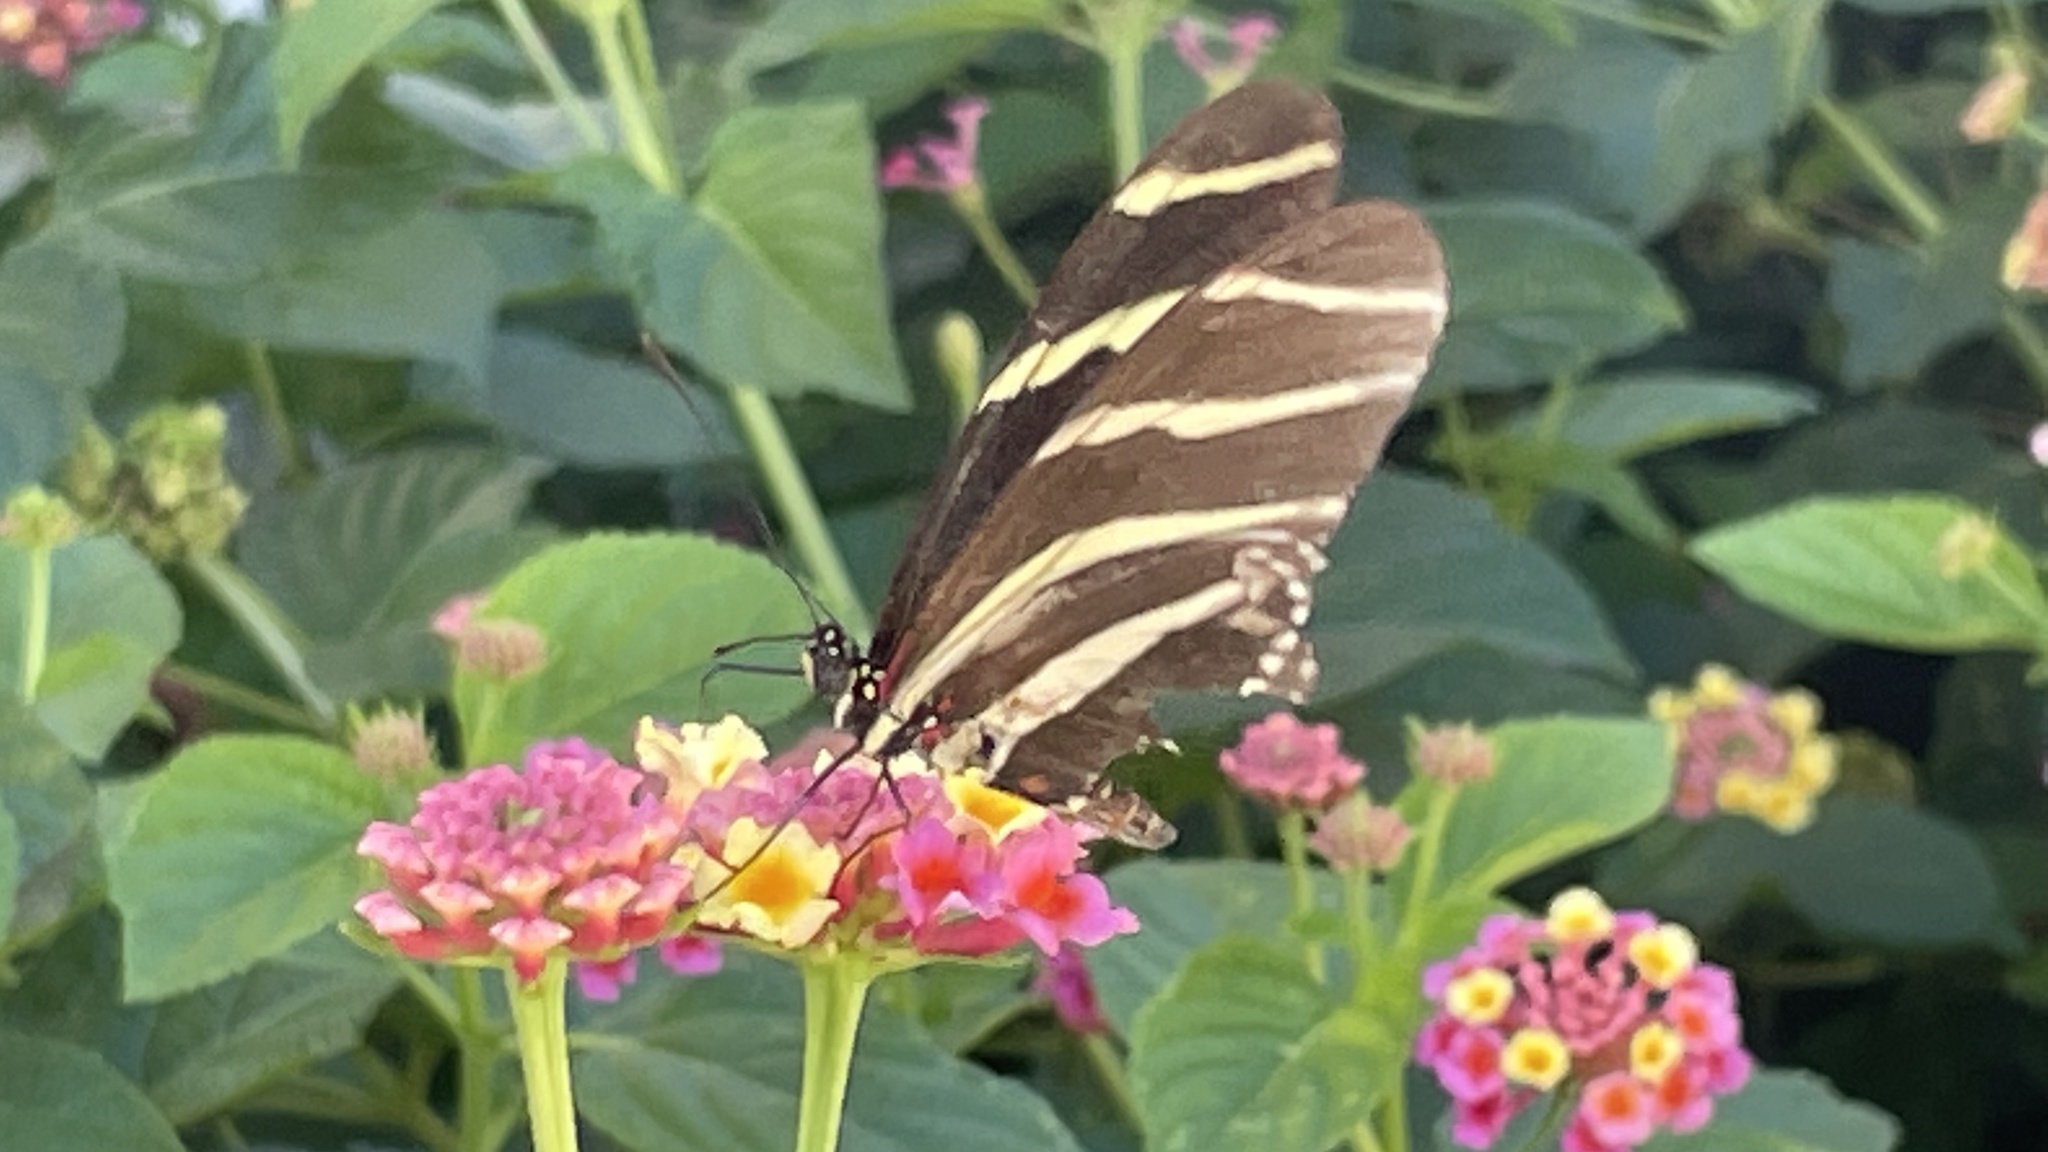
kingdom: Animalia
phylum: Arthropoda
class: Insecta
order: Lepidoptera
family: Nymphalidae
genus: Heliconius
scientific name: Heliconius charithonia
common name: Zebra long wing
